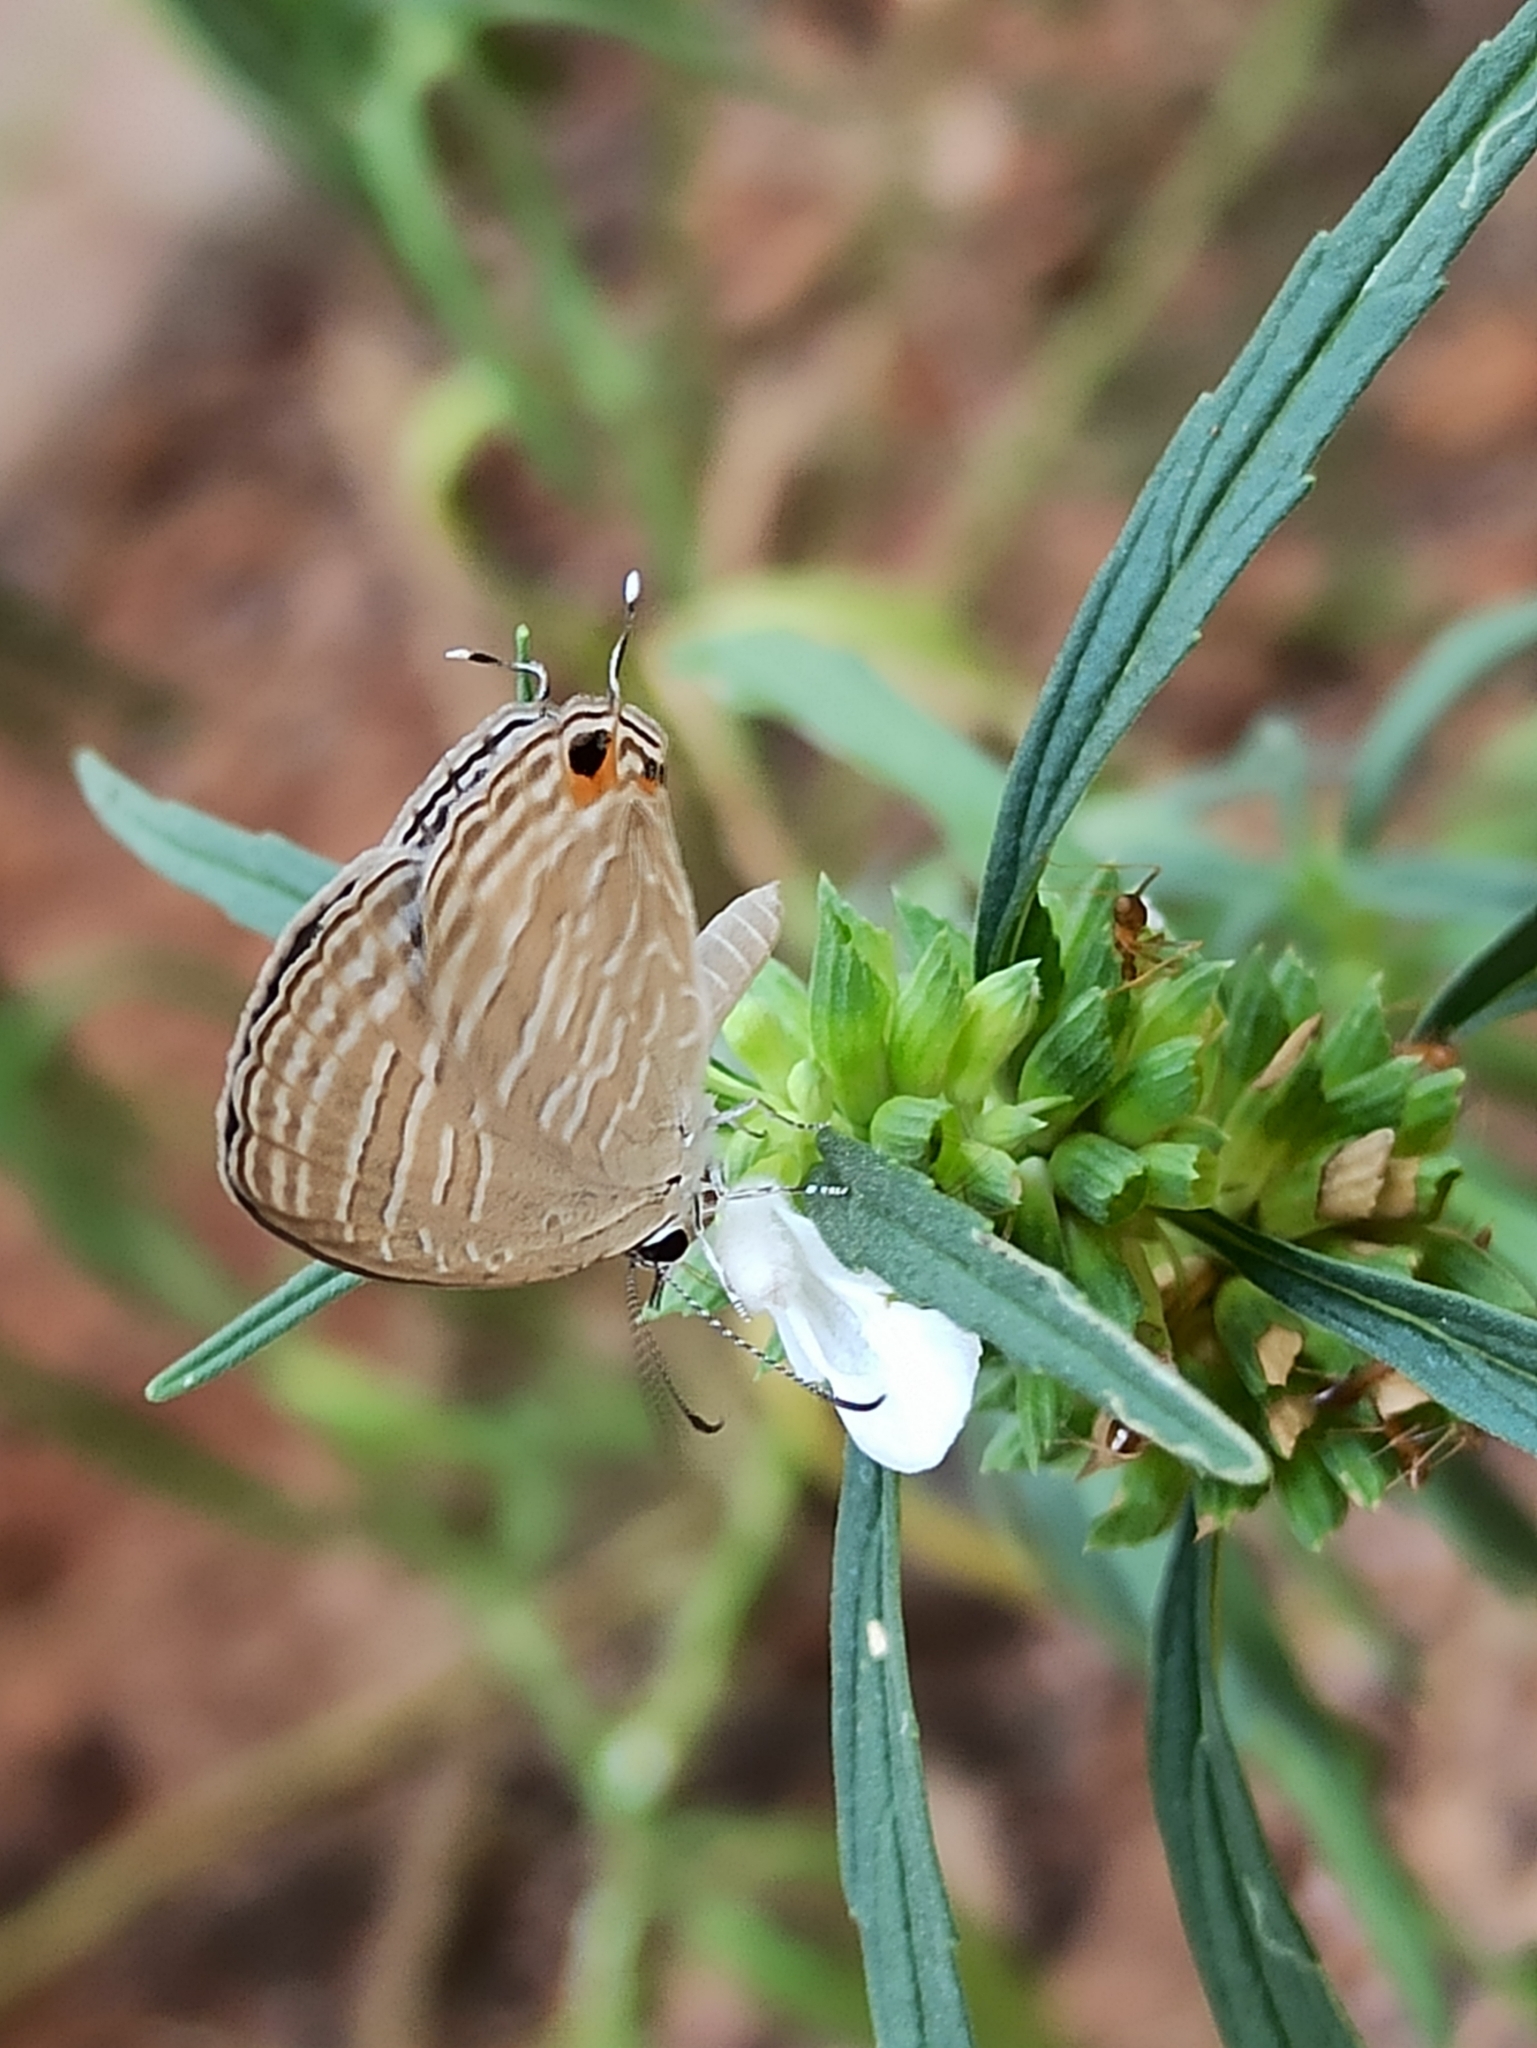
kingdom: Animalia
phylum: Arthropoda
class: Insecta
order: Lepidoptera
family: Lycaenidae
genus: Jamides
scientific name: Jamides celeno
